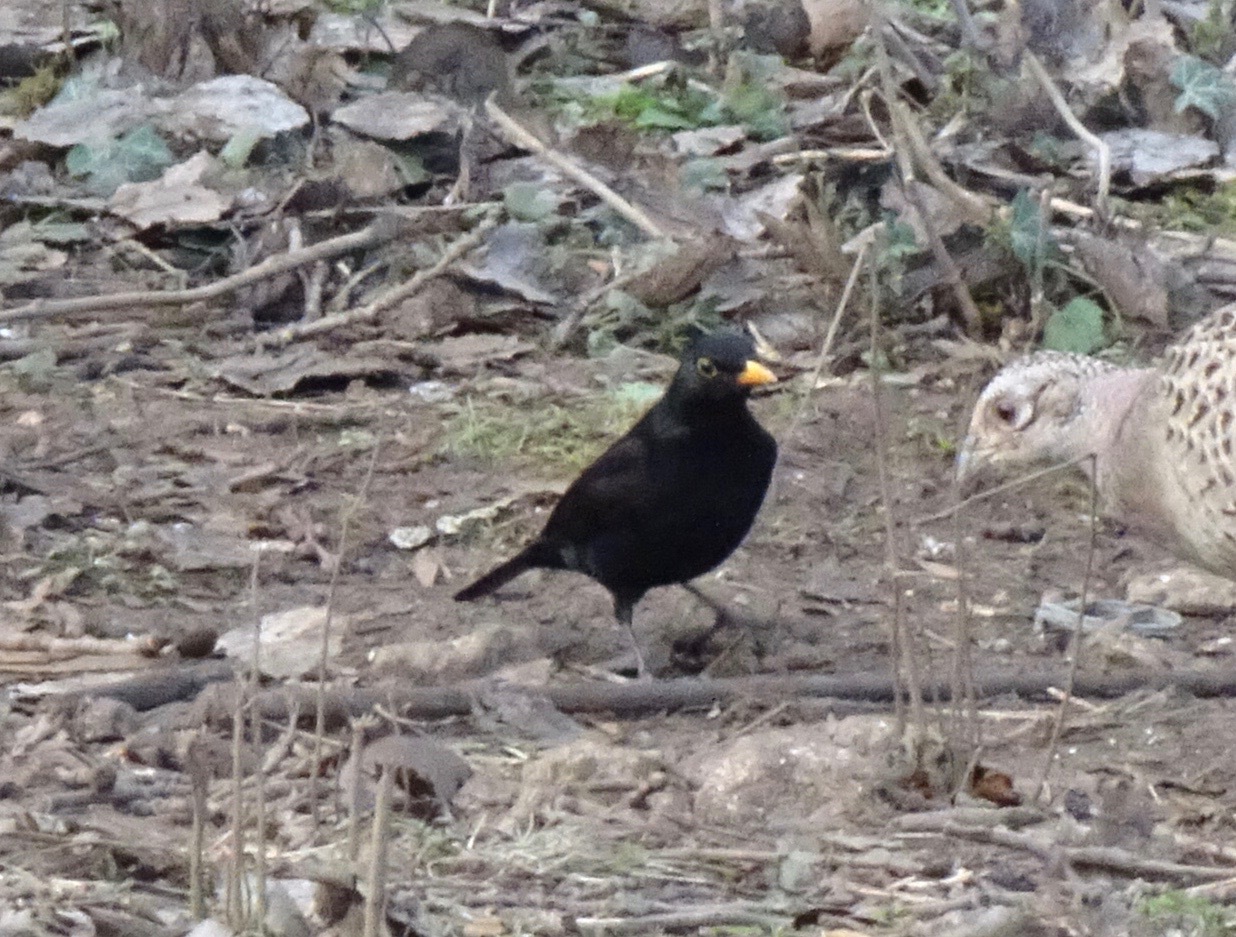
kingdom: Animalia
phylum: Chordata
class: Aves
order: Passeriformes
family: Turdidae
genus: Turdus
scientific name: Turdus merula
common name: Common blackbird
